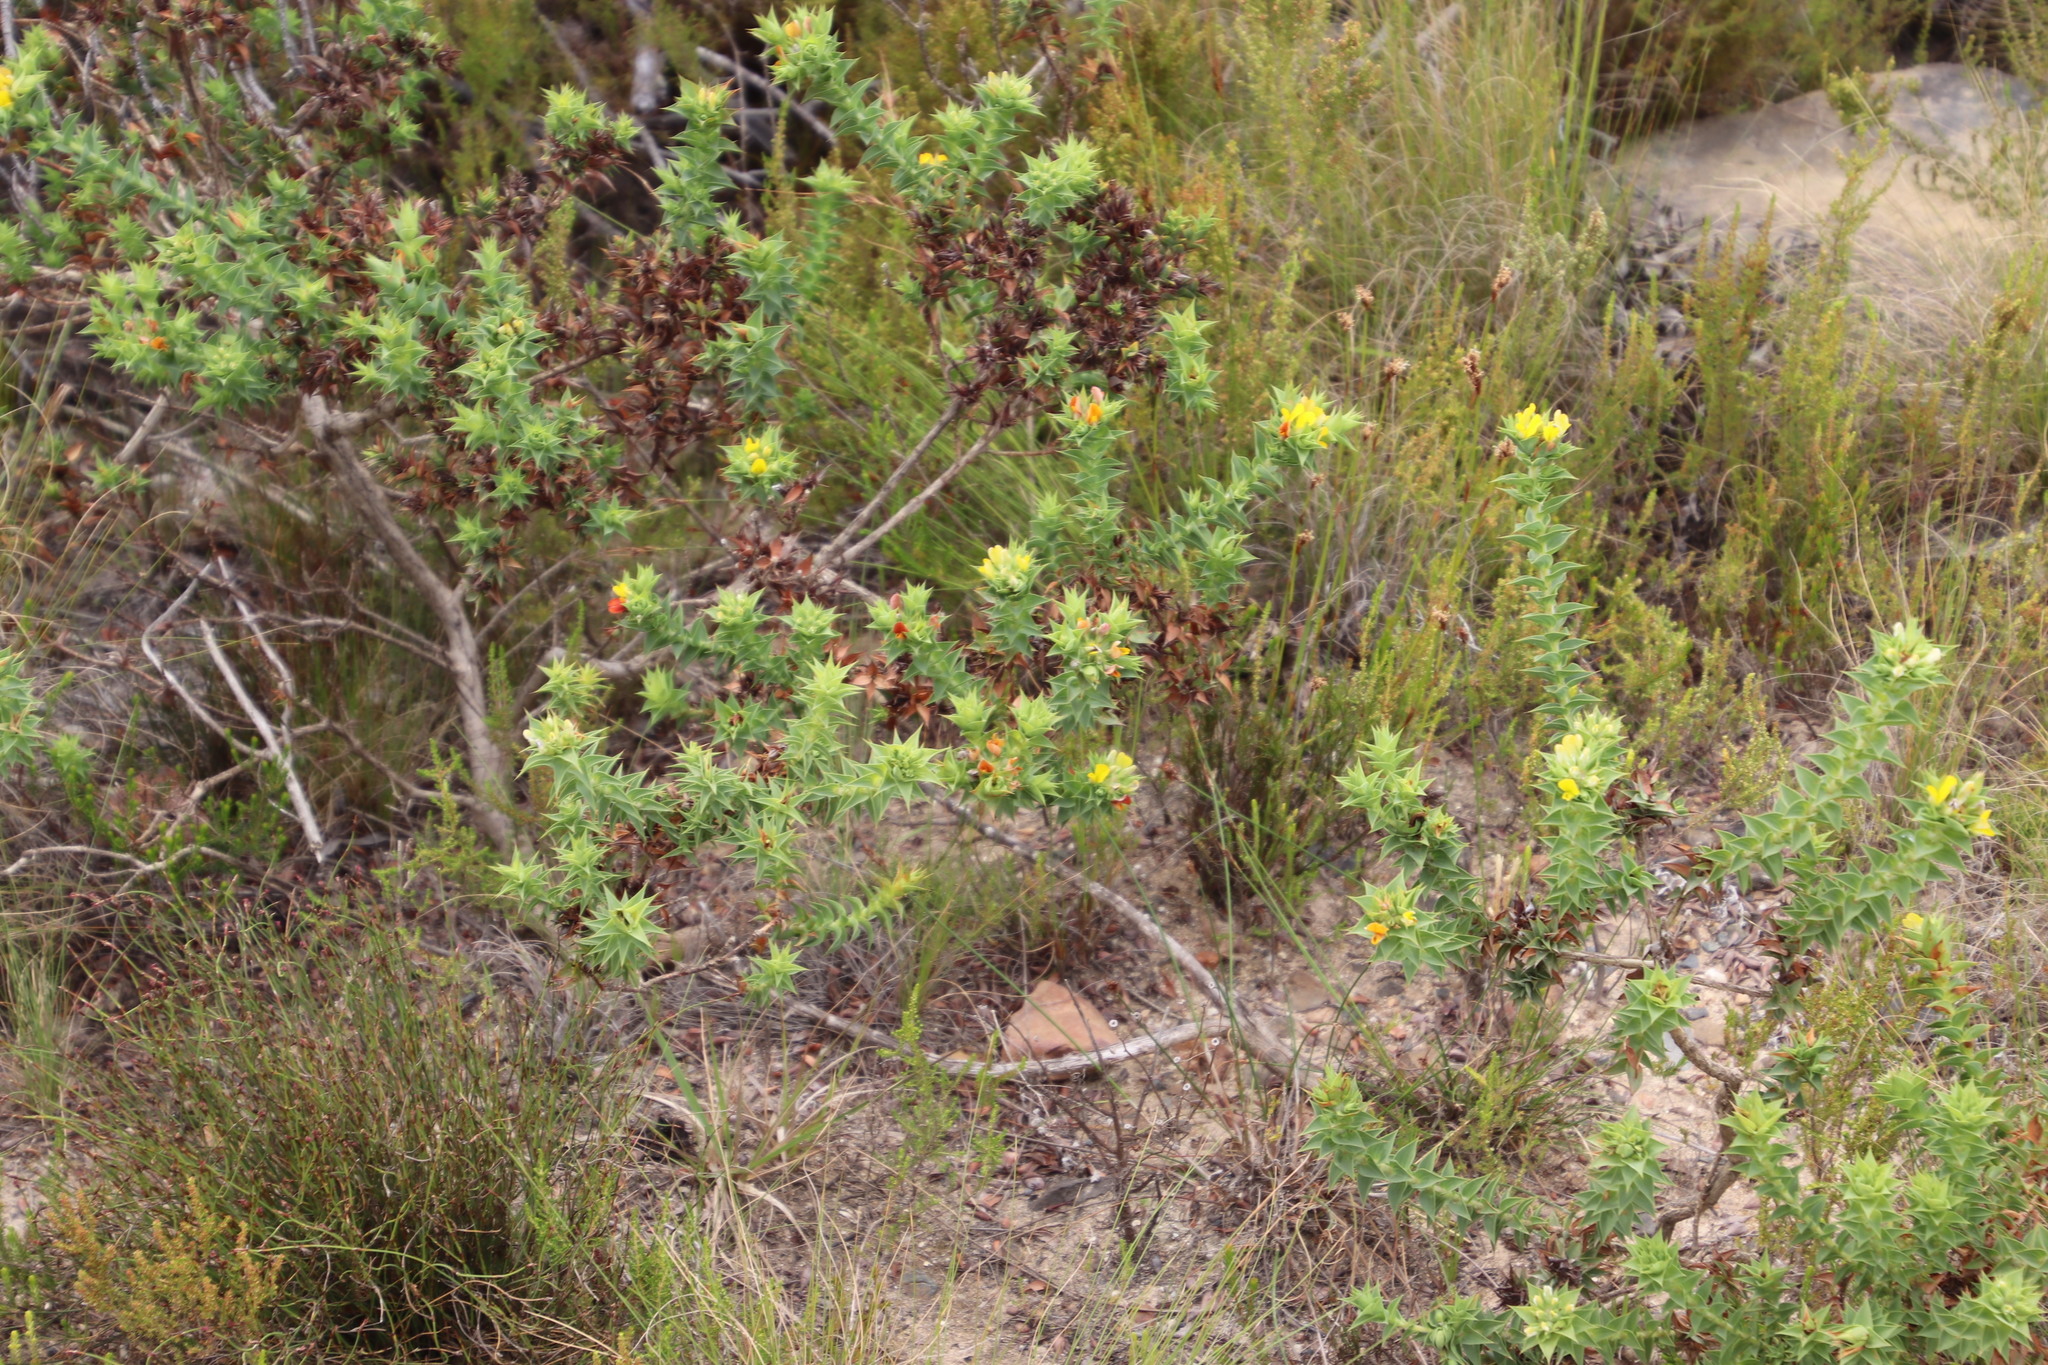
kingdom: Plantae
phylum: Tracheophyta
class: Magnoliopsida
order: Fabales
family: Fabaceae
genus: Aspalathus
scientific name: Aspalathus cordata
